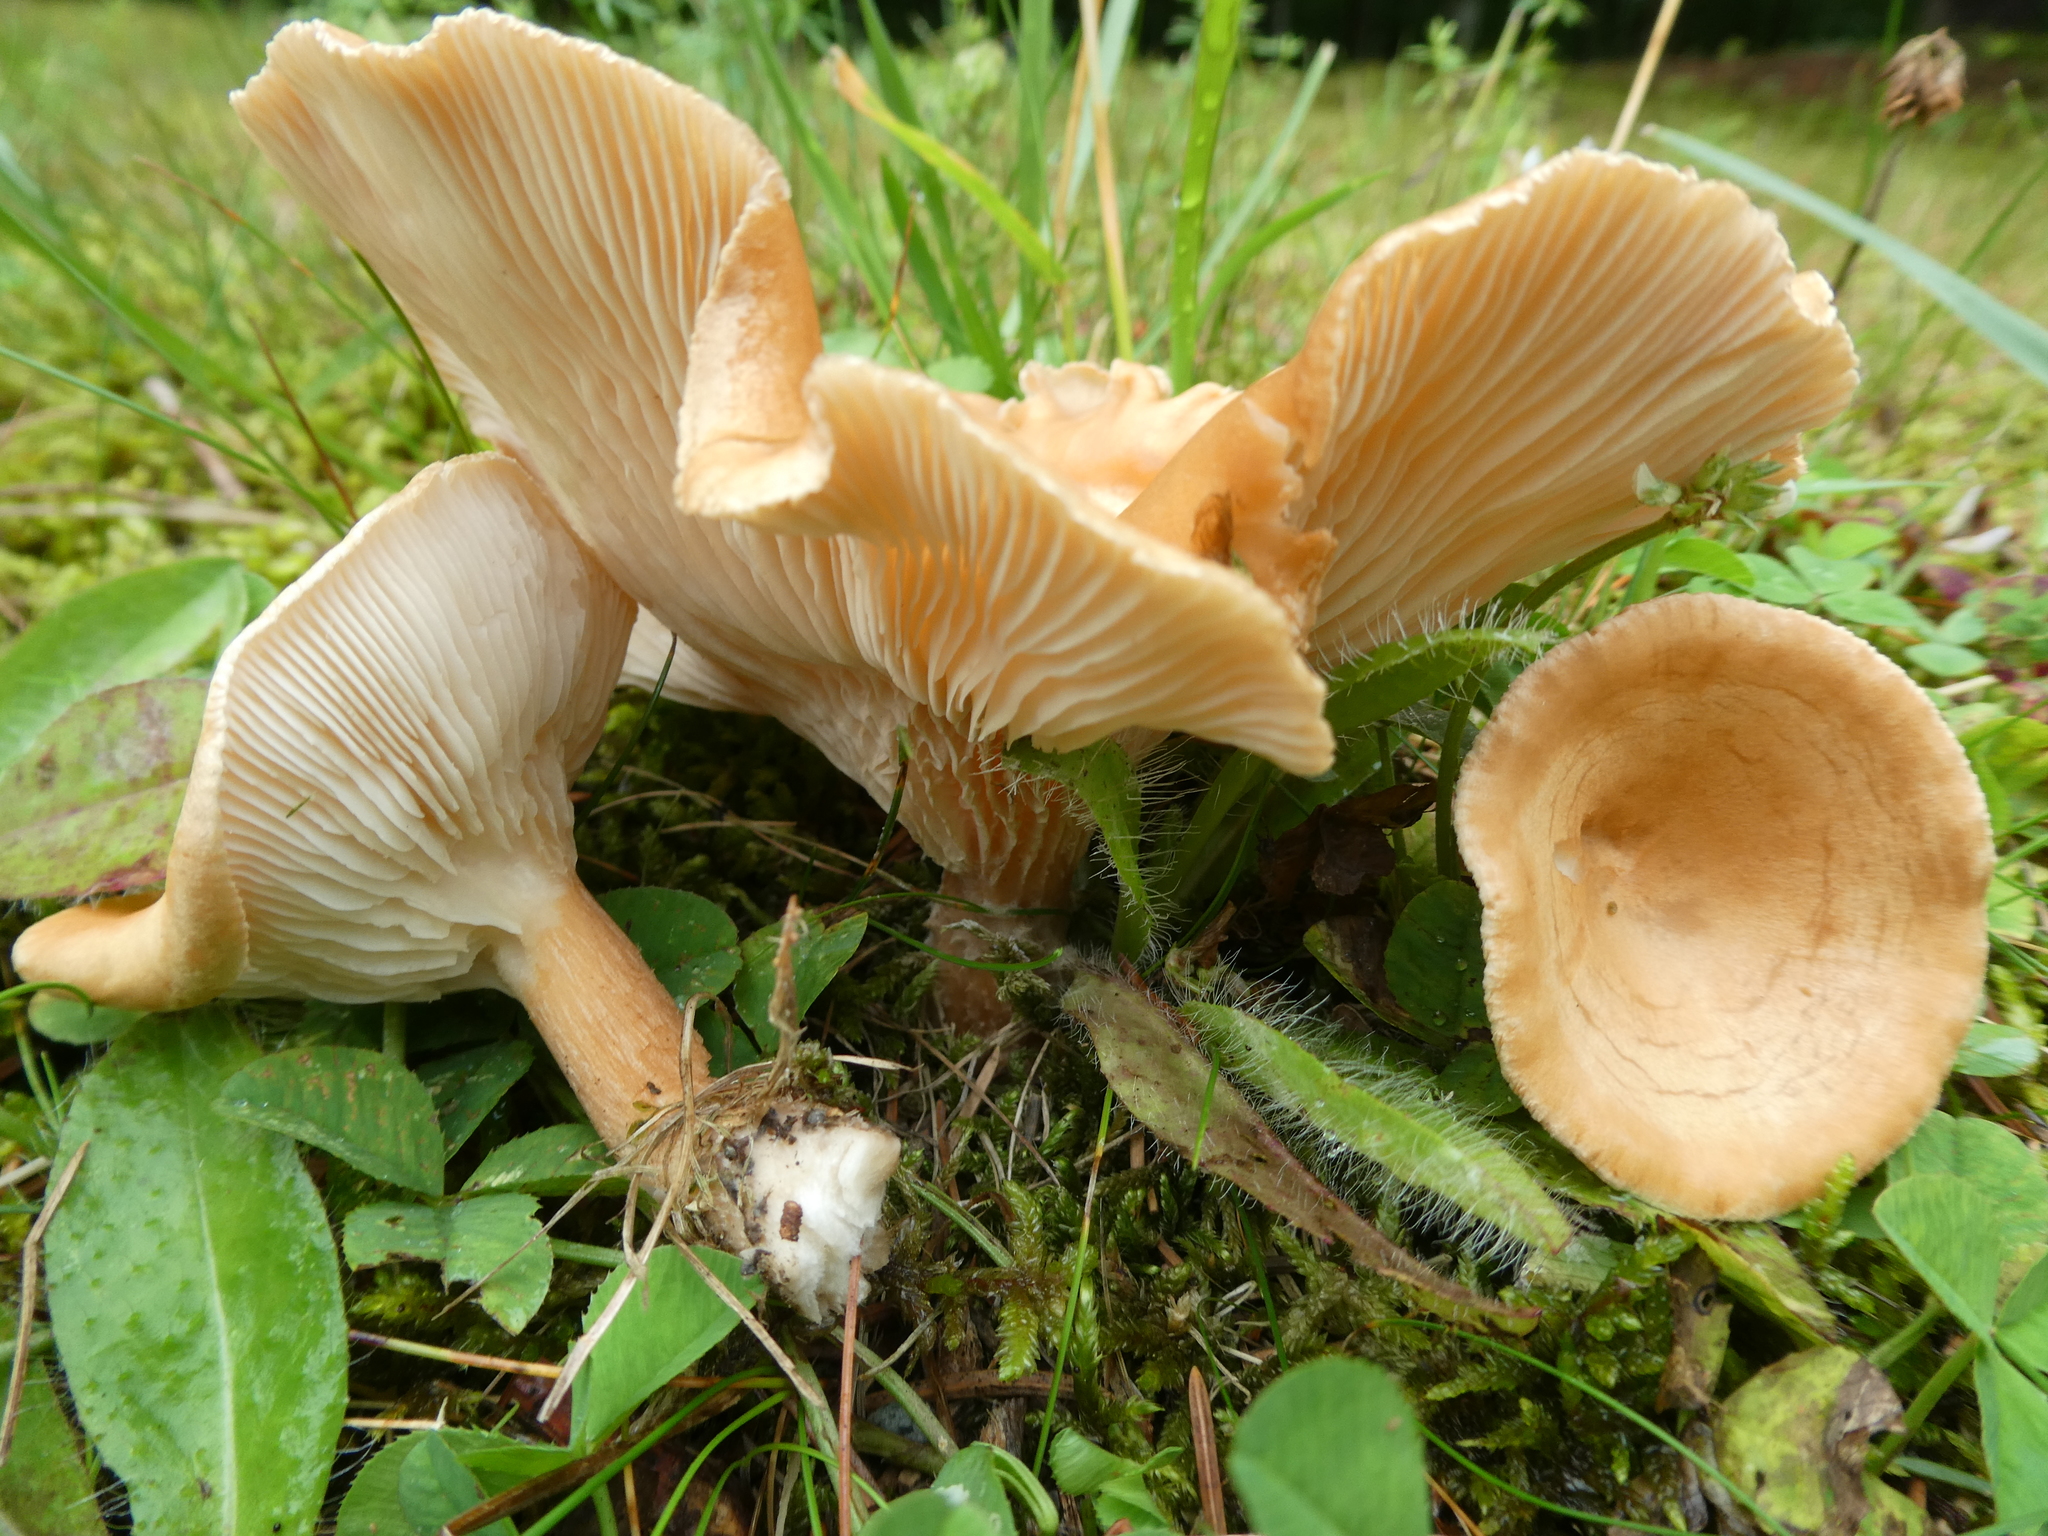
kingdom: Fungi
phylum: Basidiomycota
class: Agaricomycetes
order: Agaricales
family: Tricholomataceae
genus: Infundibulicybe
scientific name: Infundibulicybe squamulosa
